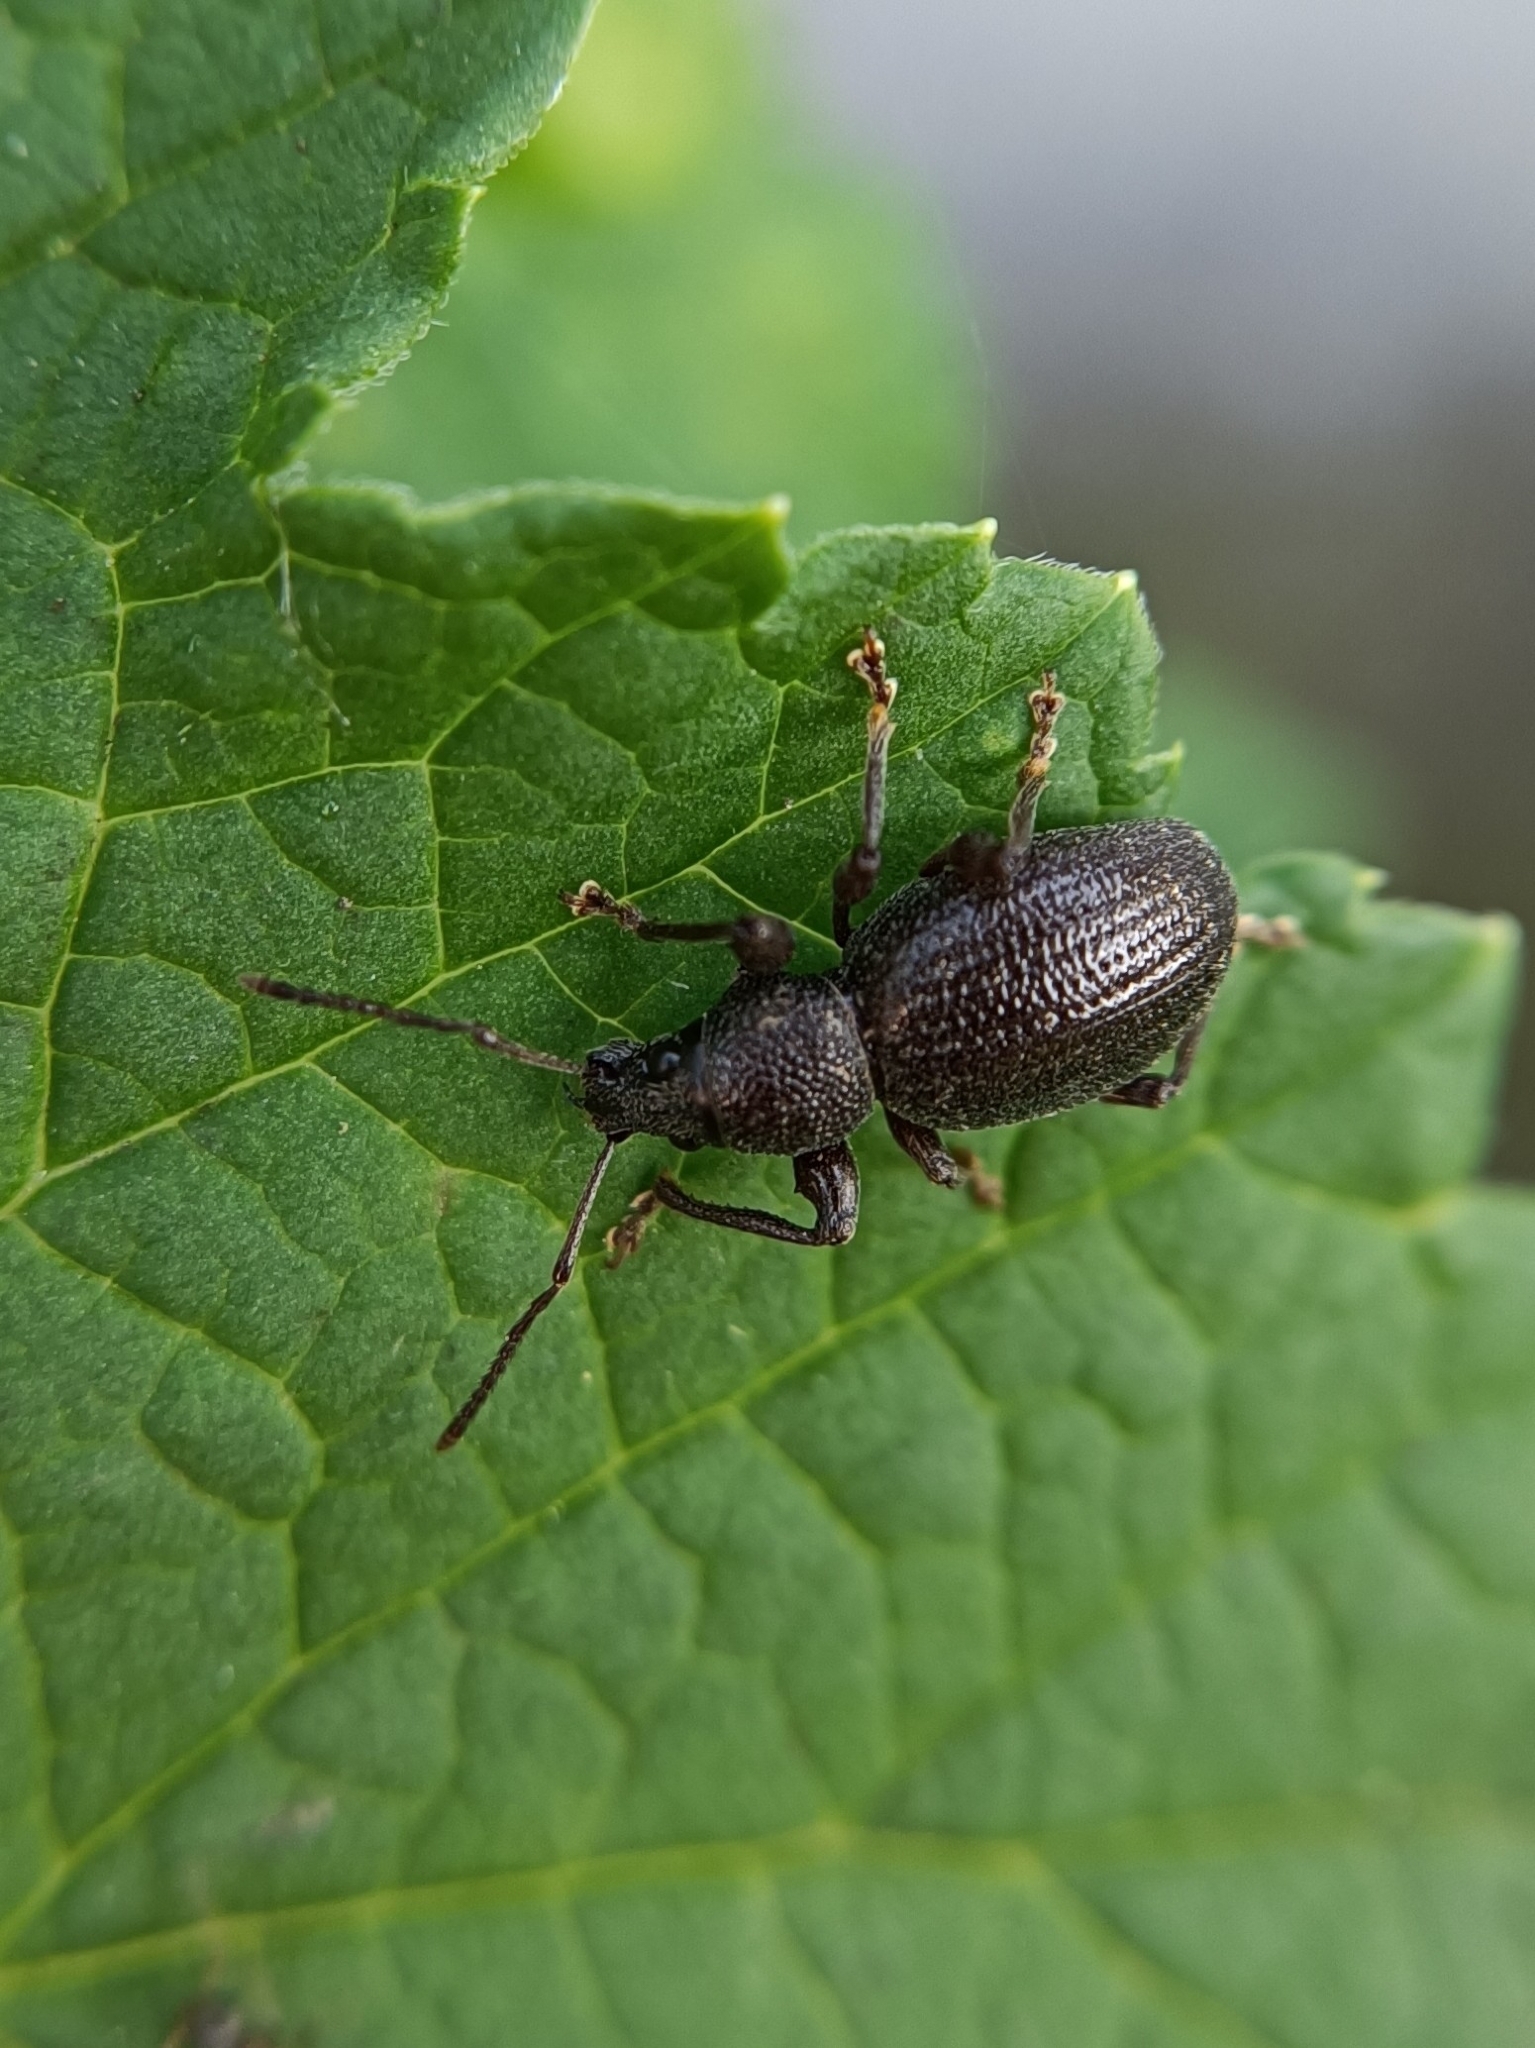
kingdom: Animalia
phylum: Arthropoda
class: Insecta
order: Coleoptera
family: Curculionidae
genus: Otiorhynchus
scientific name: Otiorhynchus ovalipennis
